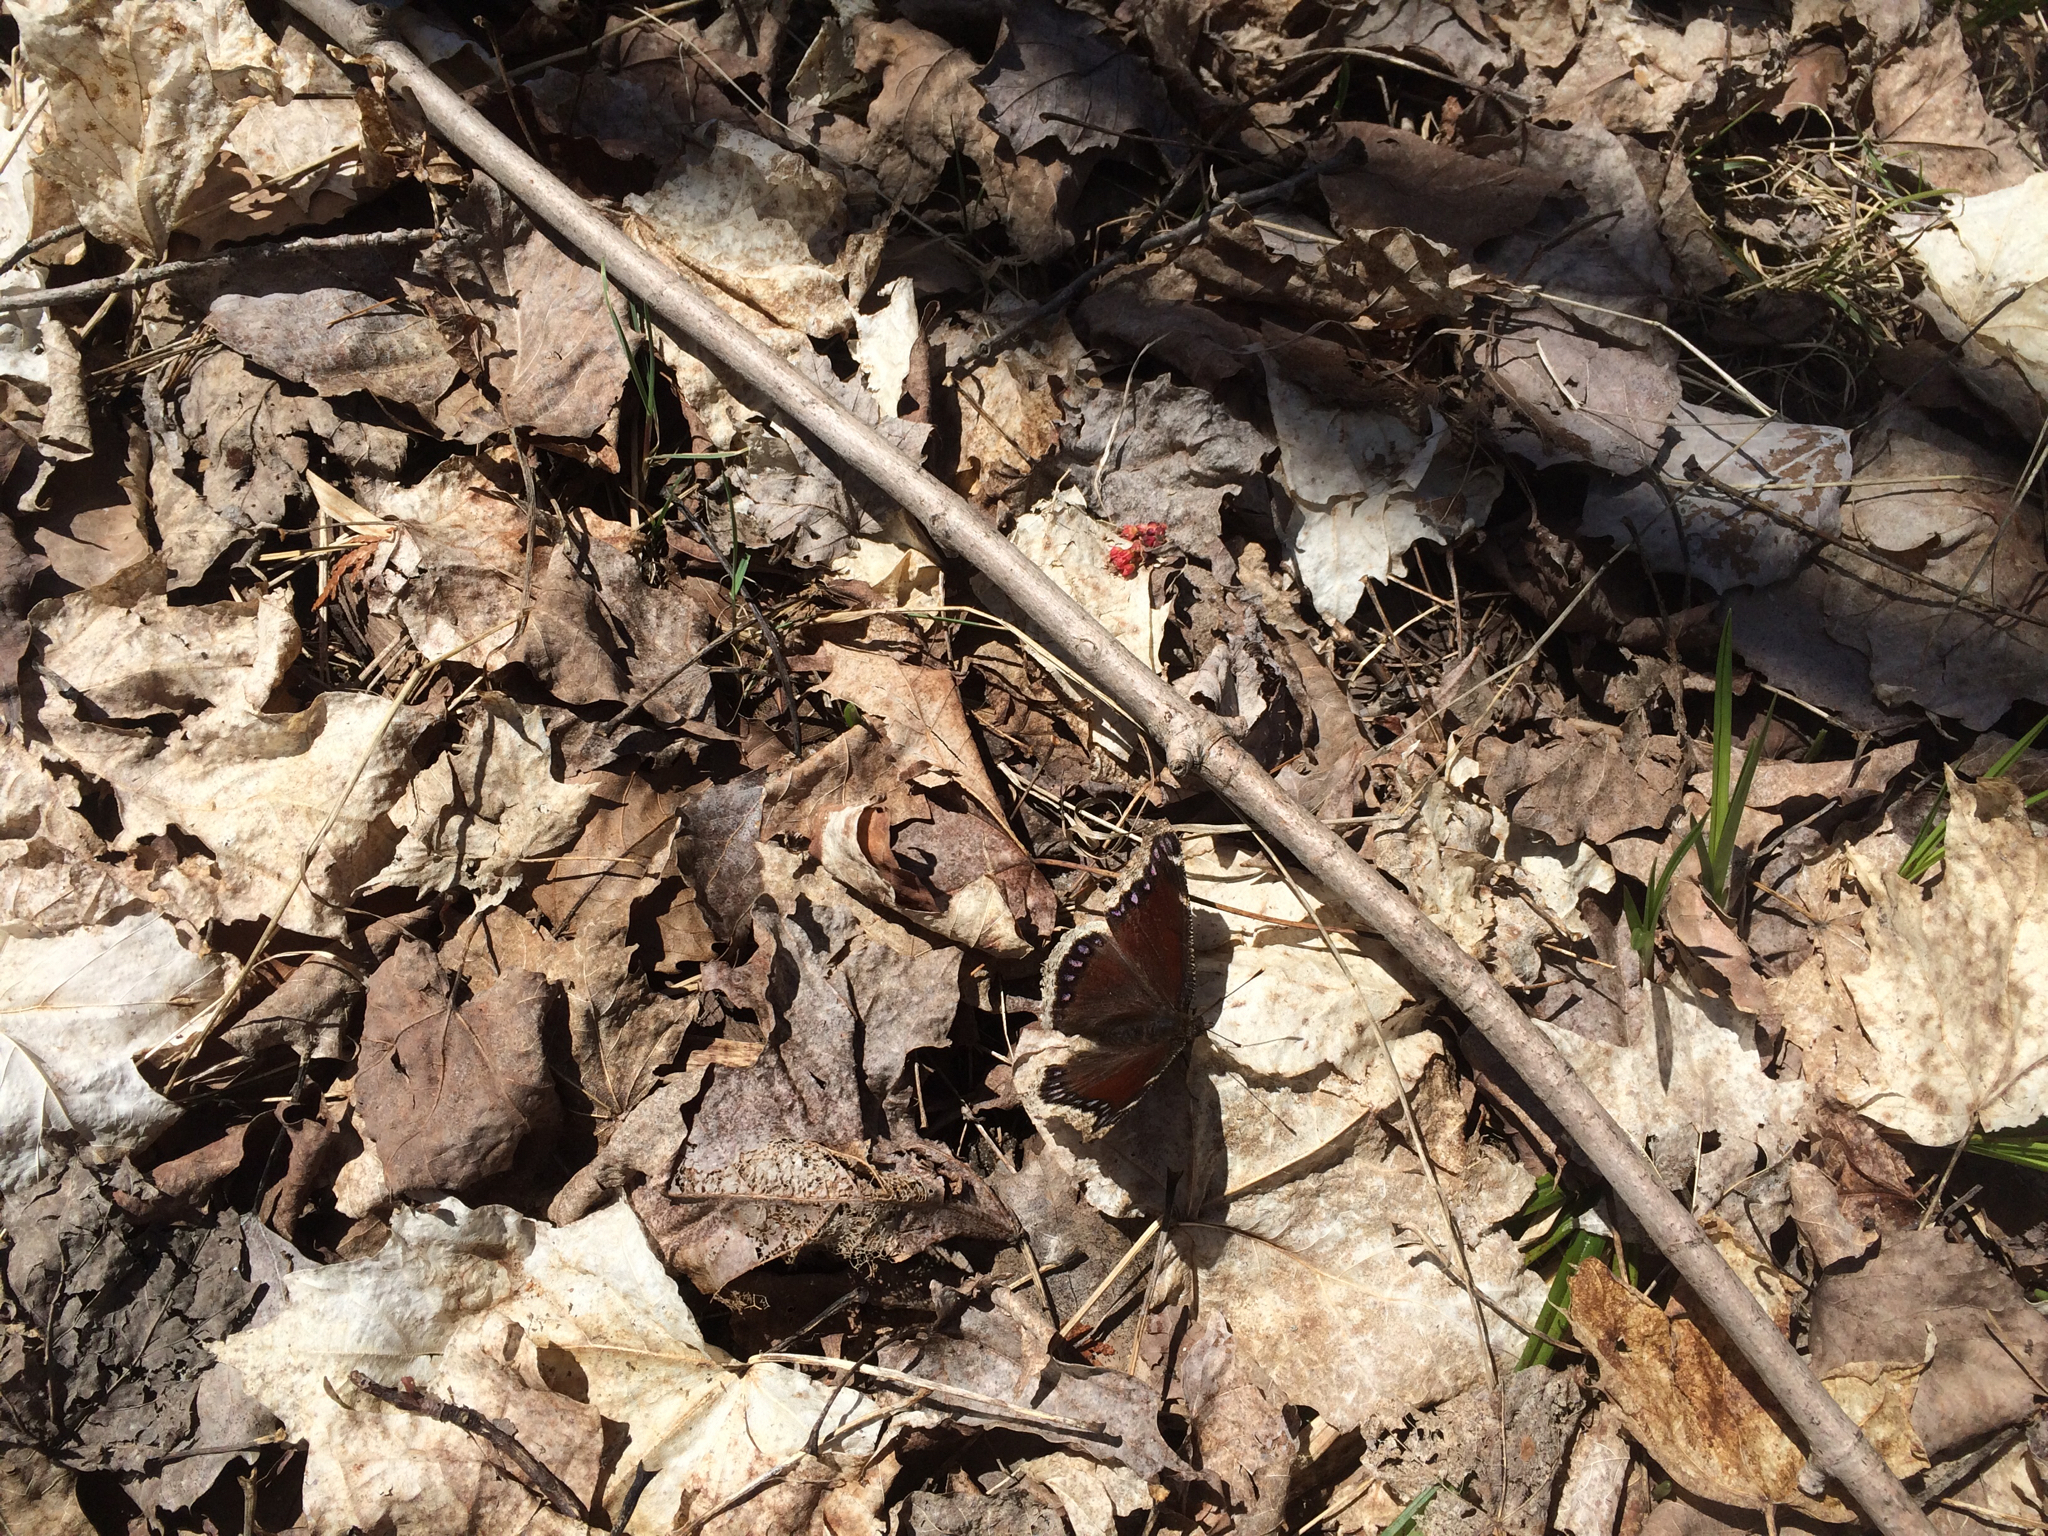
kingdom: Animalia
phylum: Arthropoda
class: Insecta
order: Lepidoptera
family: Nymphalidae
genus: Nymphalis
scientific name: Nymphalis antiopa
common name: Camberwell beauty
